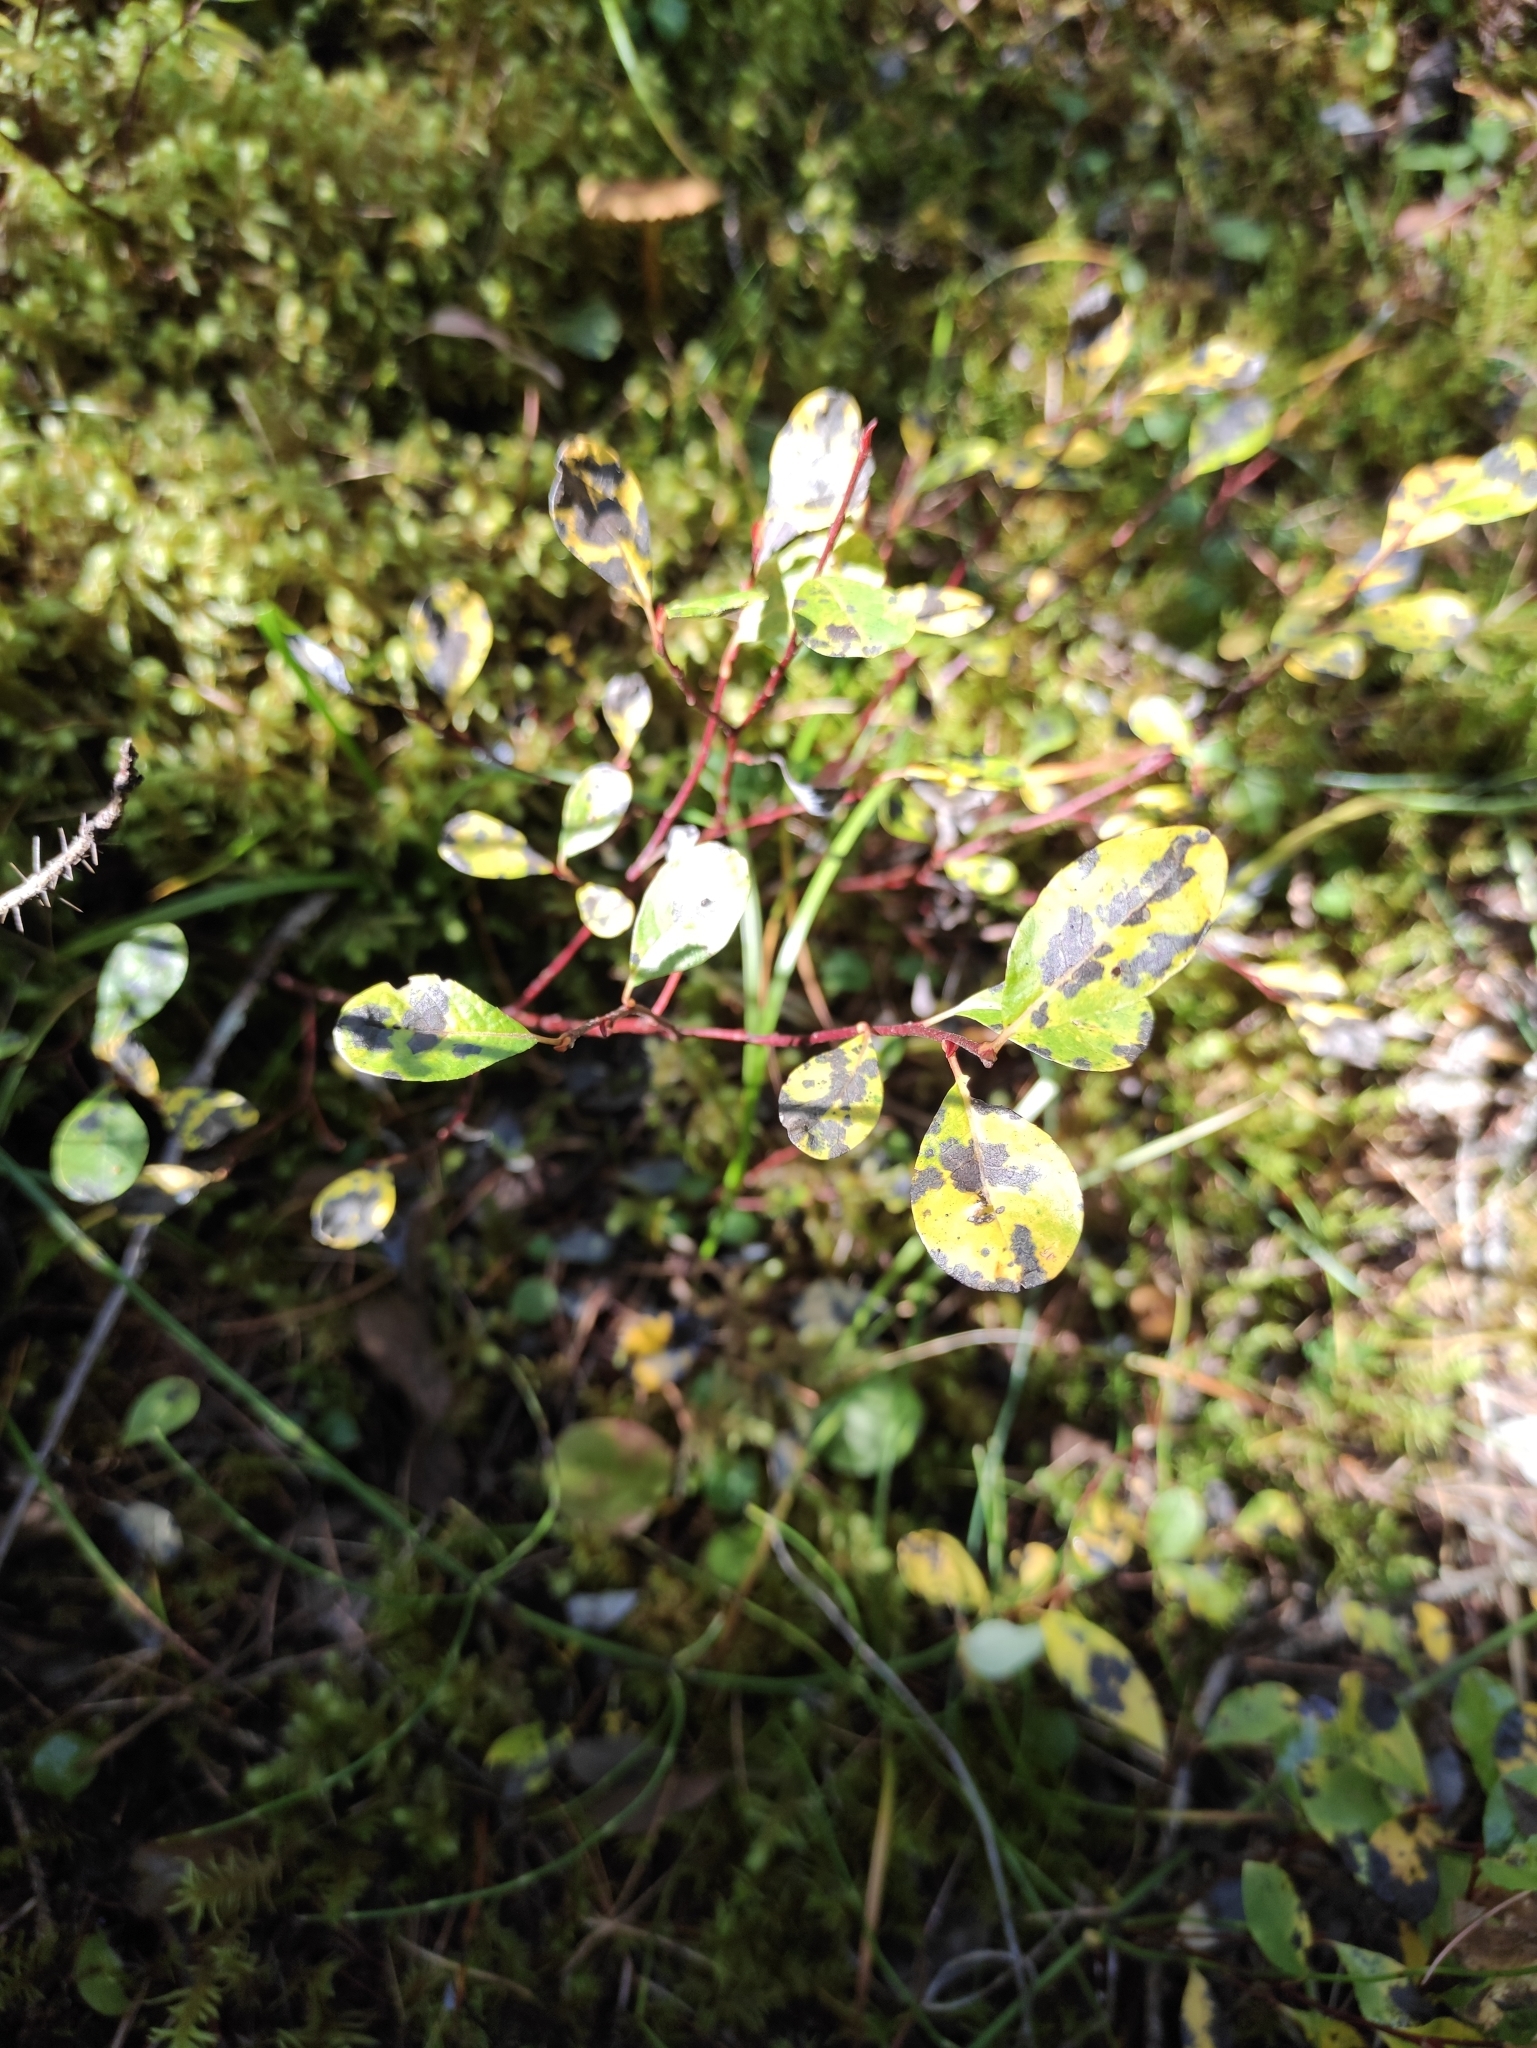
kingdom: Plantae
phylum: Tracheophyta
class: Magnoliopsida
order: Ericales
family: Ericaceae
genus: Vaccinium
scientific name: Vaccinium uliginosum
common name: Bog bilberry
